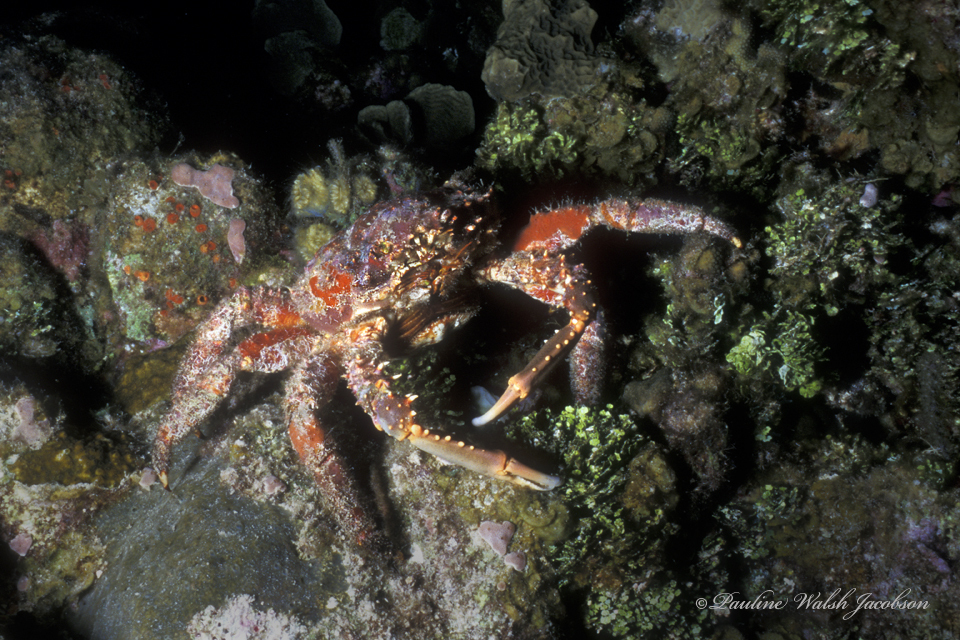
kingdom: Animalia
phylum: Arthropoda
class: Malacostraca
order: Decapoda
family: Mithracidae
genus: Amphithrax
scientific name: Amphithrax pilosus
